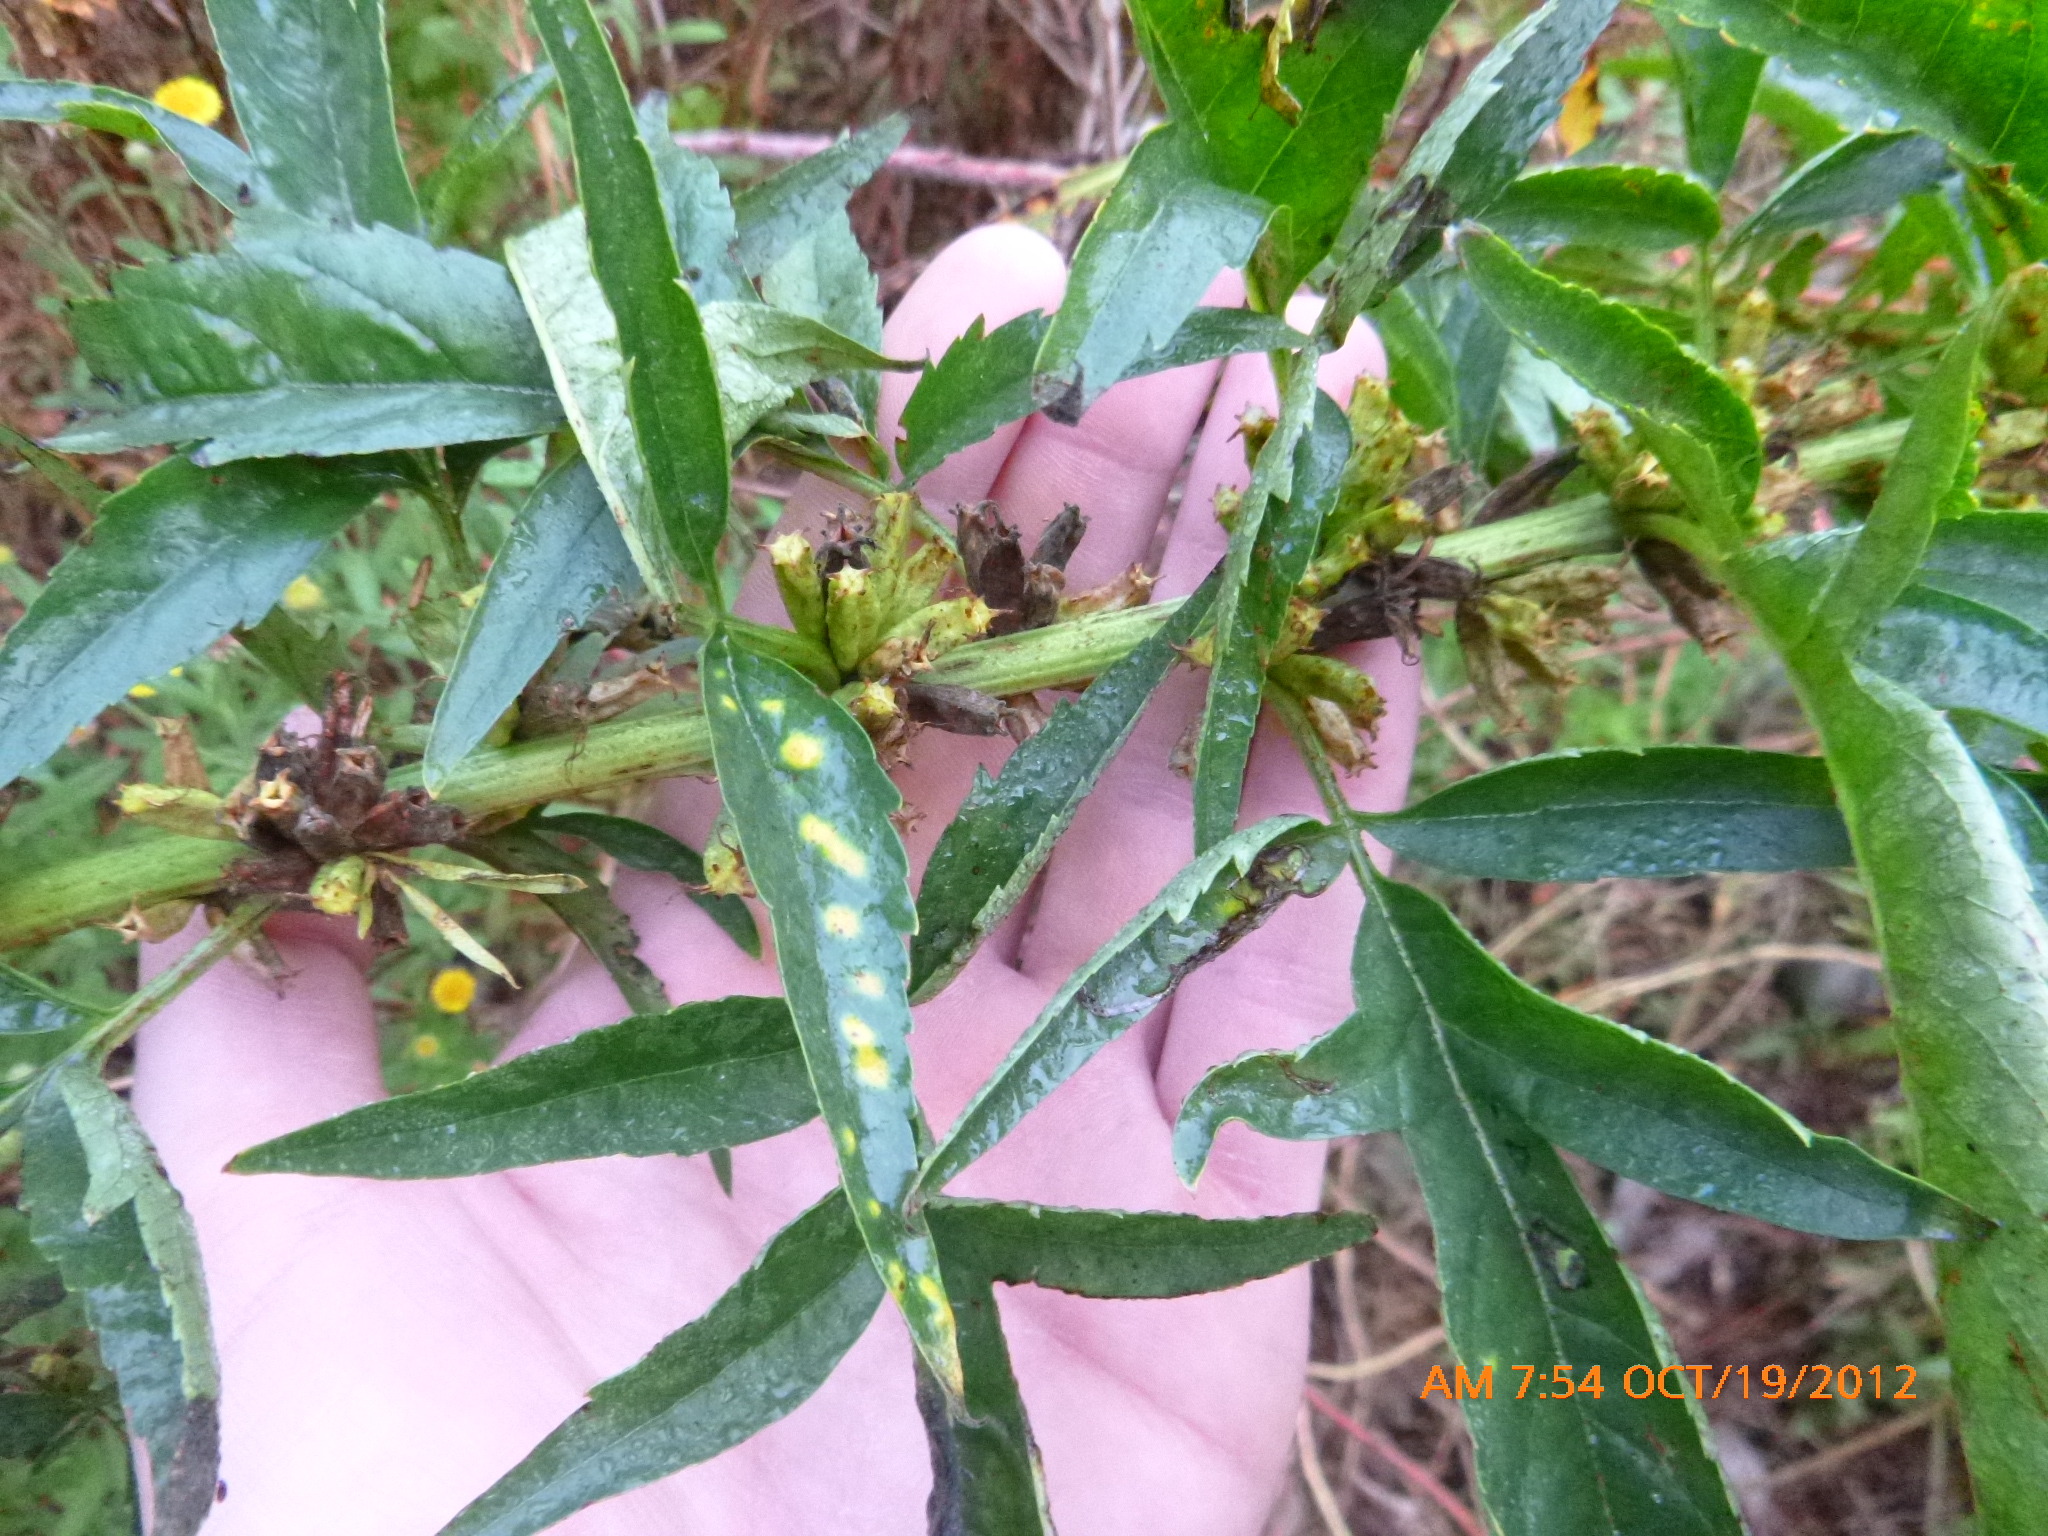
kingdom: Plantae
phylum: Tracheophyta
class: Magnoliopsida
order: Cucurbitales
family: Datiscaceae
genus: Datisca
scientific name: Datisca glomerata
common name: Durango-root
